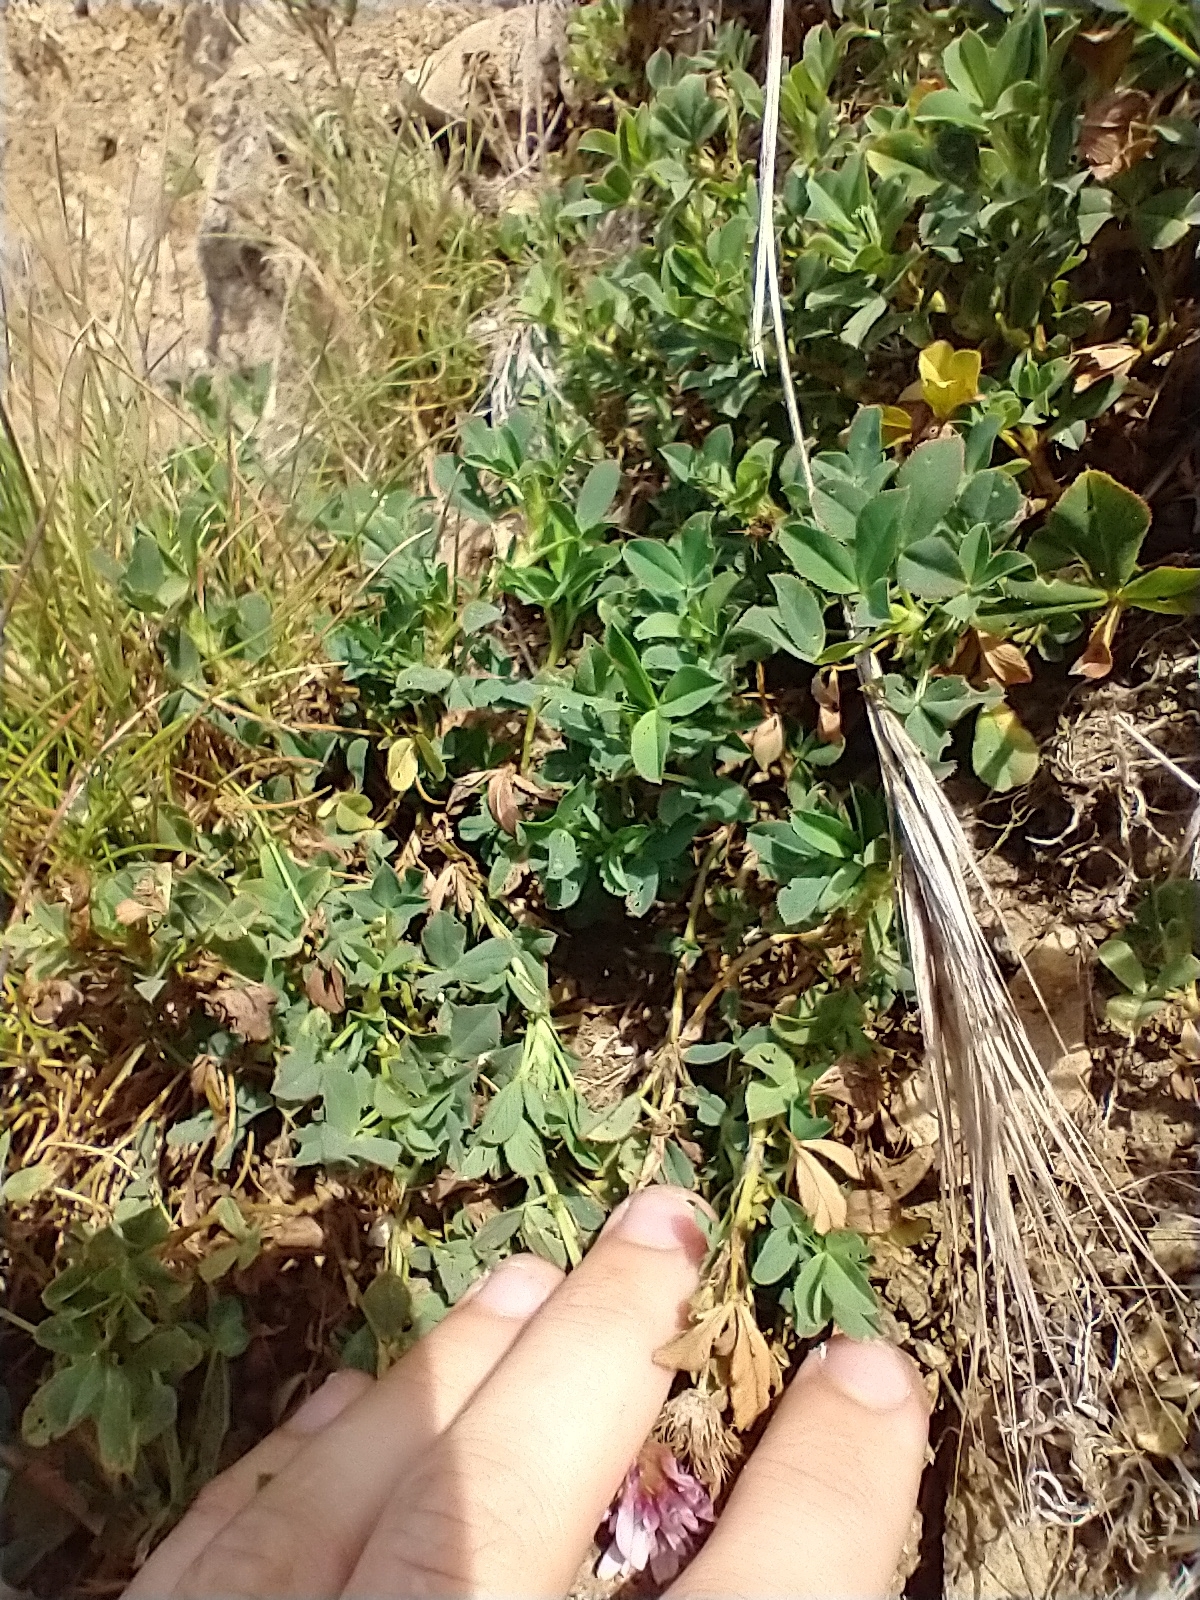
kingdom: Plantae
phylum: Tracheophyta
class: Magnoliopsida
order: Fabales
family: Fabaceae
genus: Trifolium
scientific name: Trifolium wormskioldii
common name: Springbank clover
